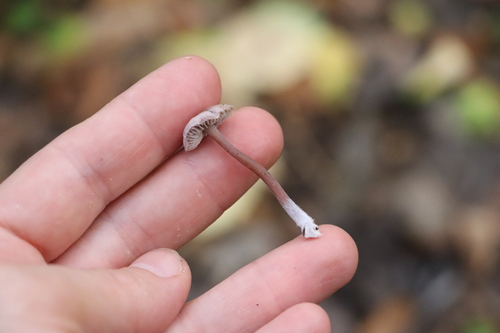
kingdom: Fungi
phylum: Basidiomycota
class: Agaricomycetes
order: Agaricales
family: Mycenaceae
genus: Mycena
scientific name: Mycena pura
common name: Lilac bonnet
